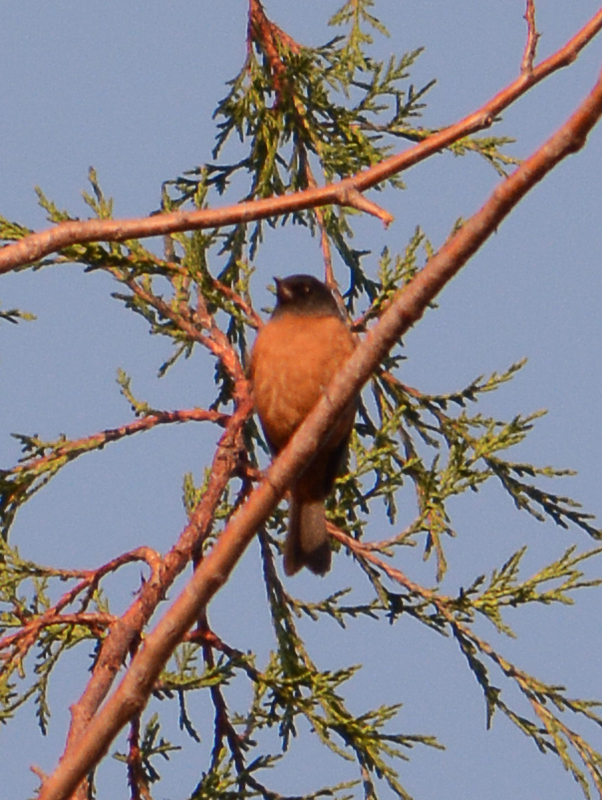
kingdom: Animalia
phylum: Chordata
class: Aves
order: Passeriformes
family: Thraupidae
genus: Diglossa
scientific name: Diglossa baritula
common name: Cinnamon-bellied flowerpiercer
